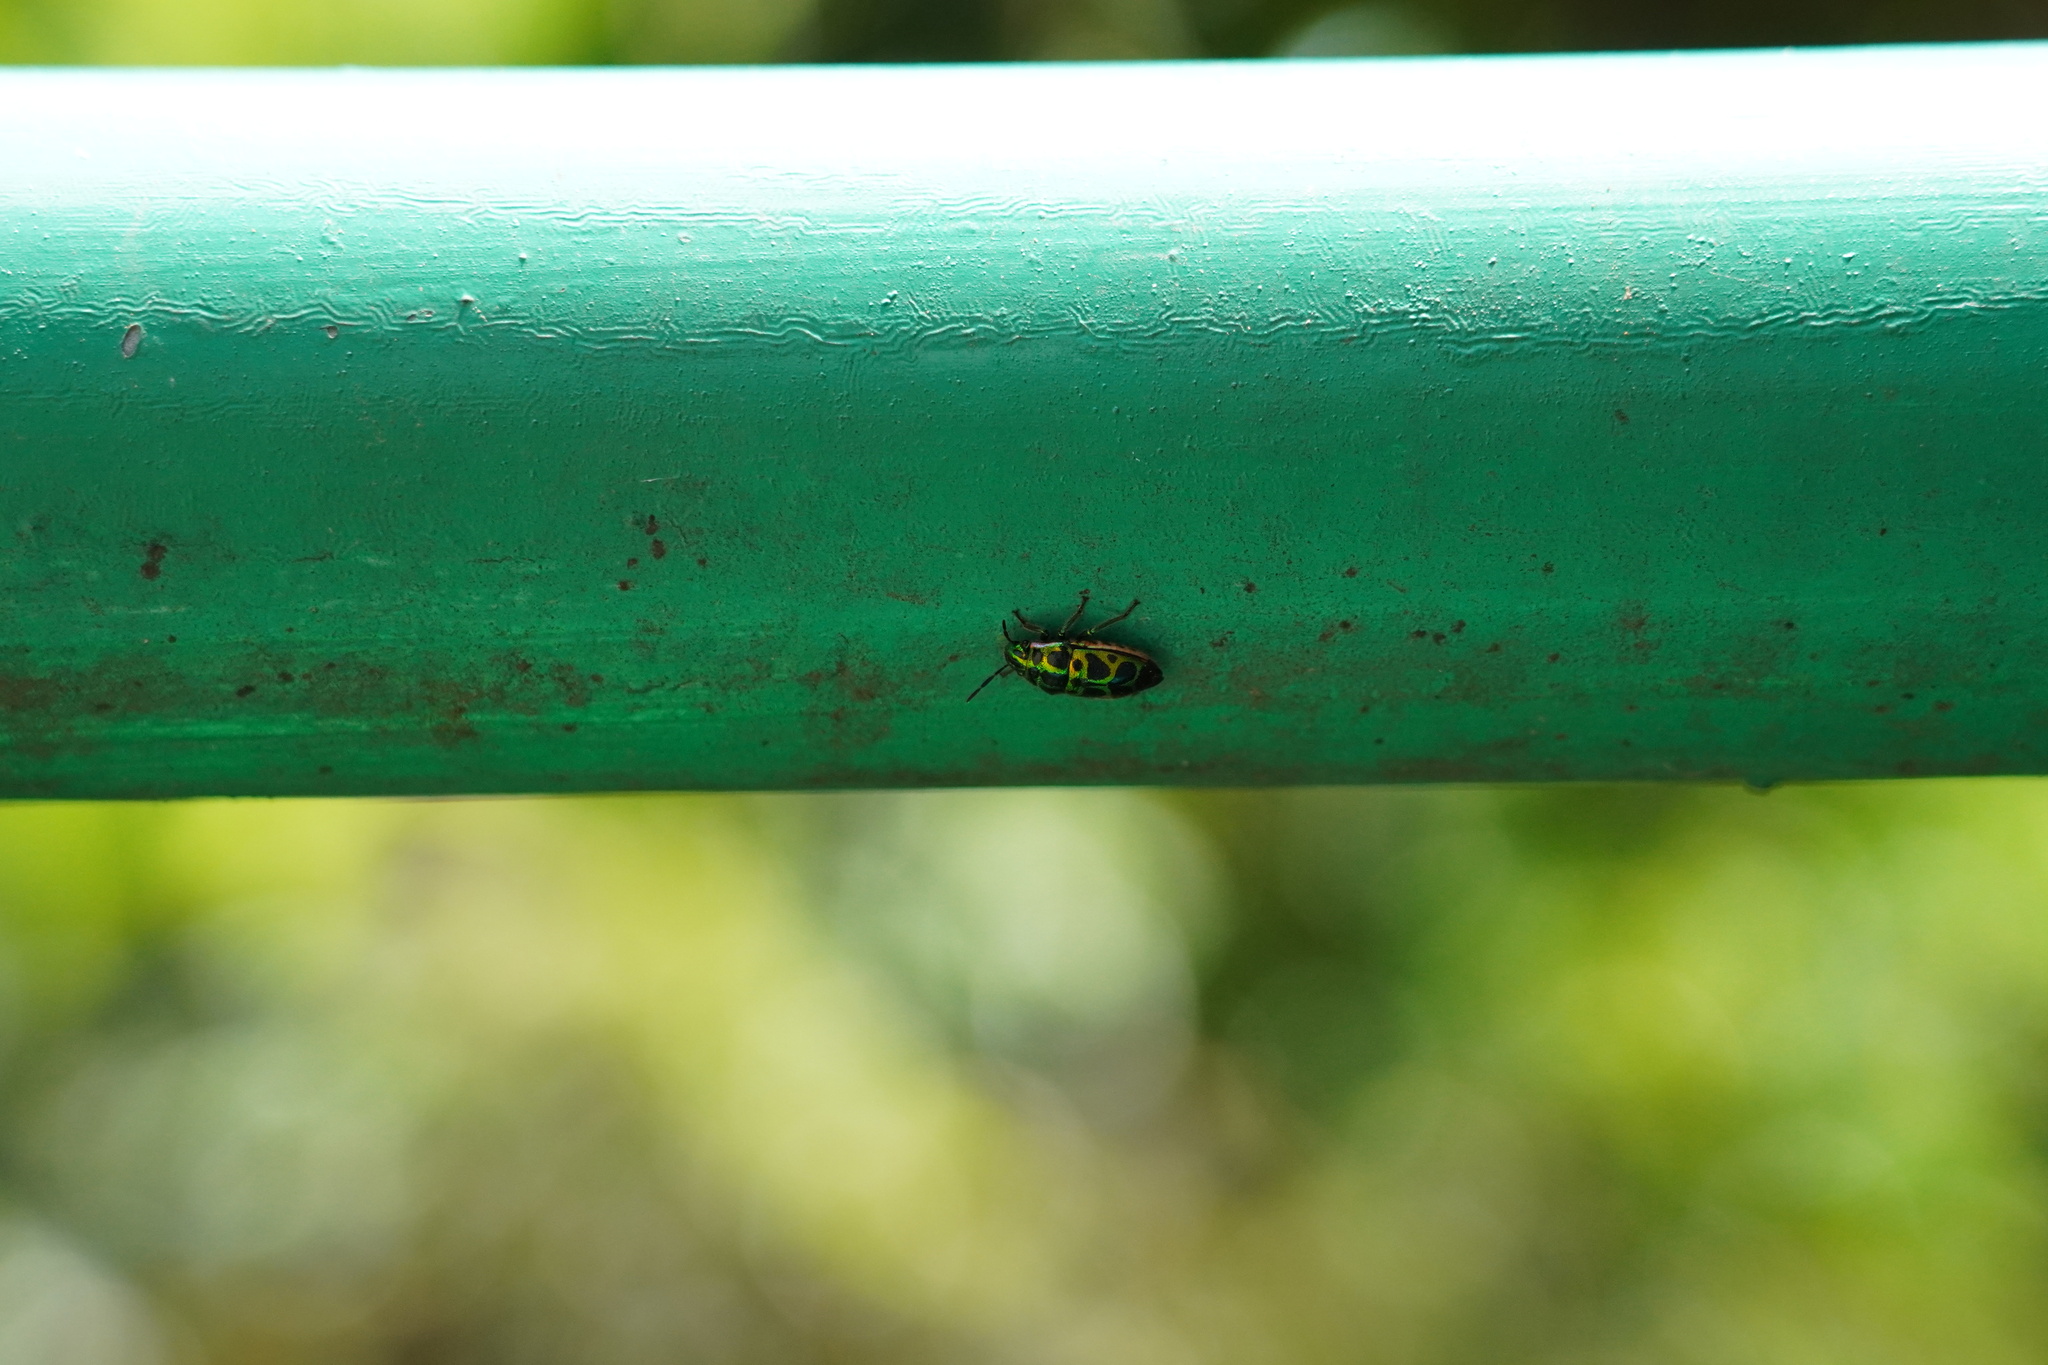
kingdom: Animalia
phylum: Arthropoda
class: Insecta
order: Hemiptera
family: Scutelleridae
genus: Brachyaulax
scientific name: Brachyaulax cyaneovitta
